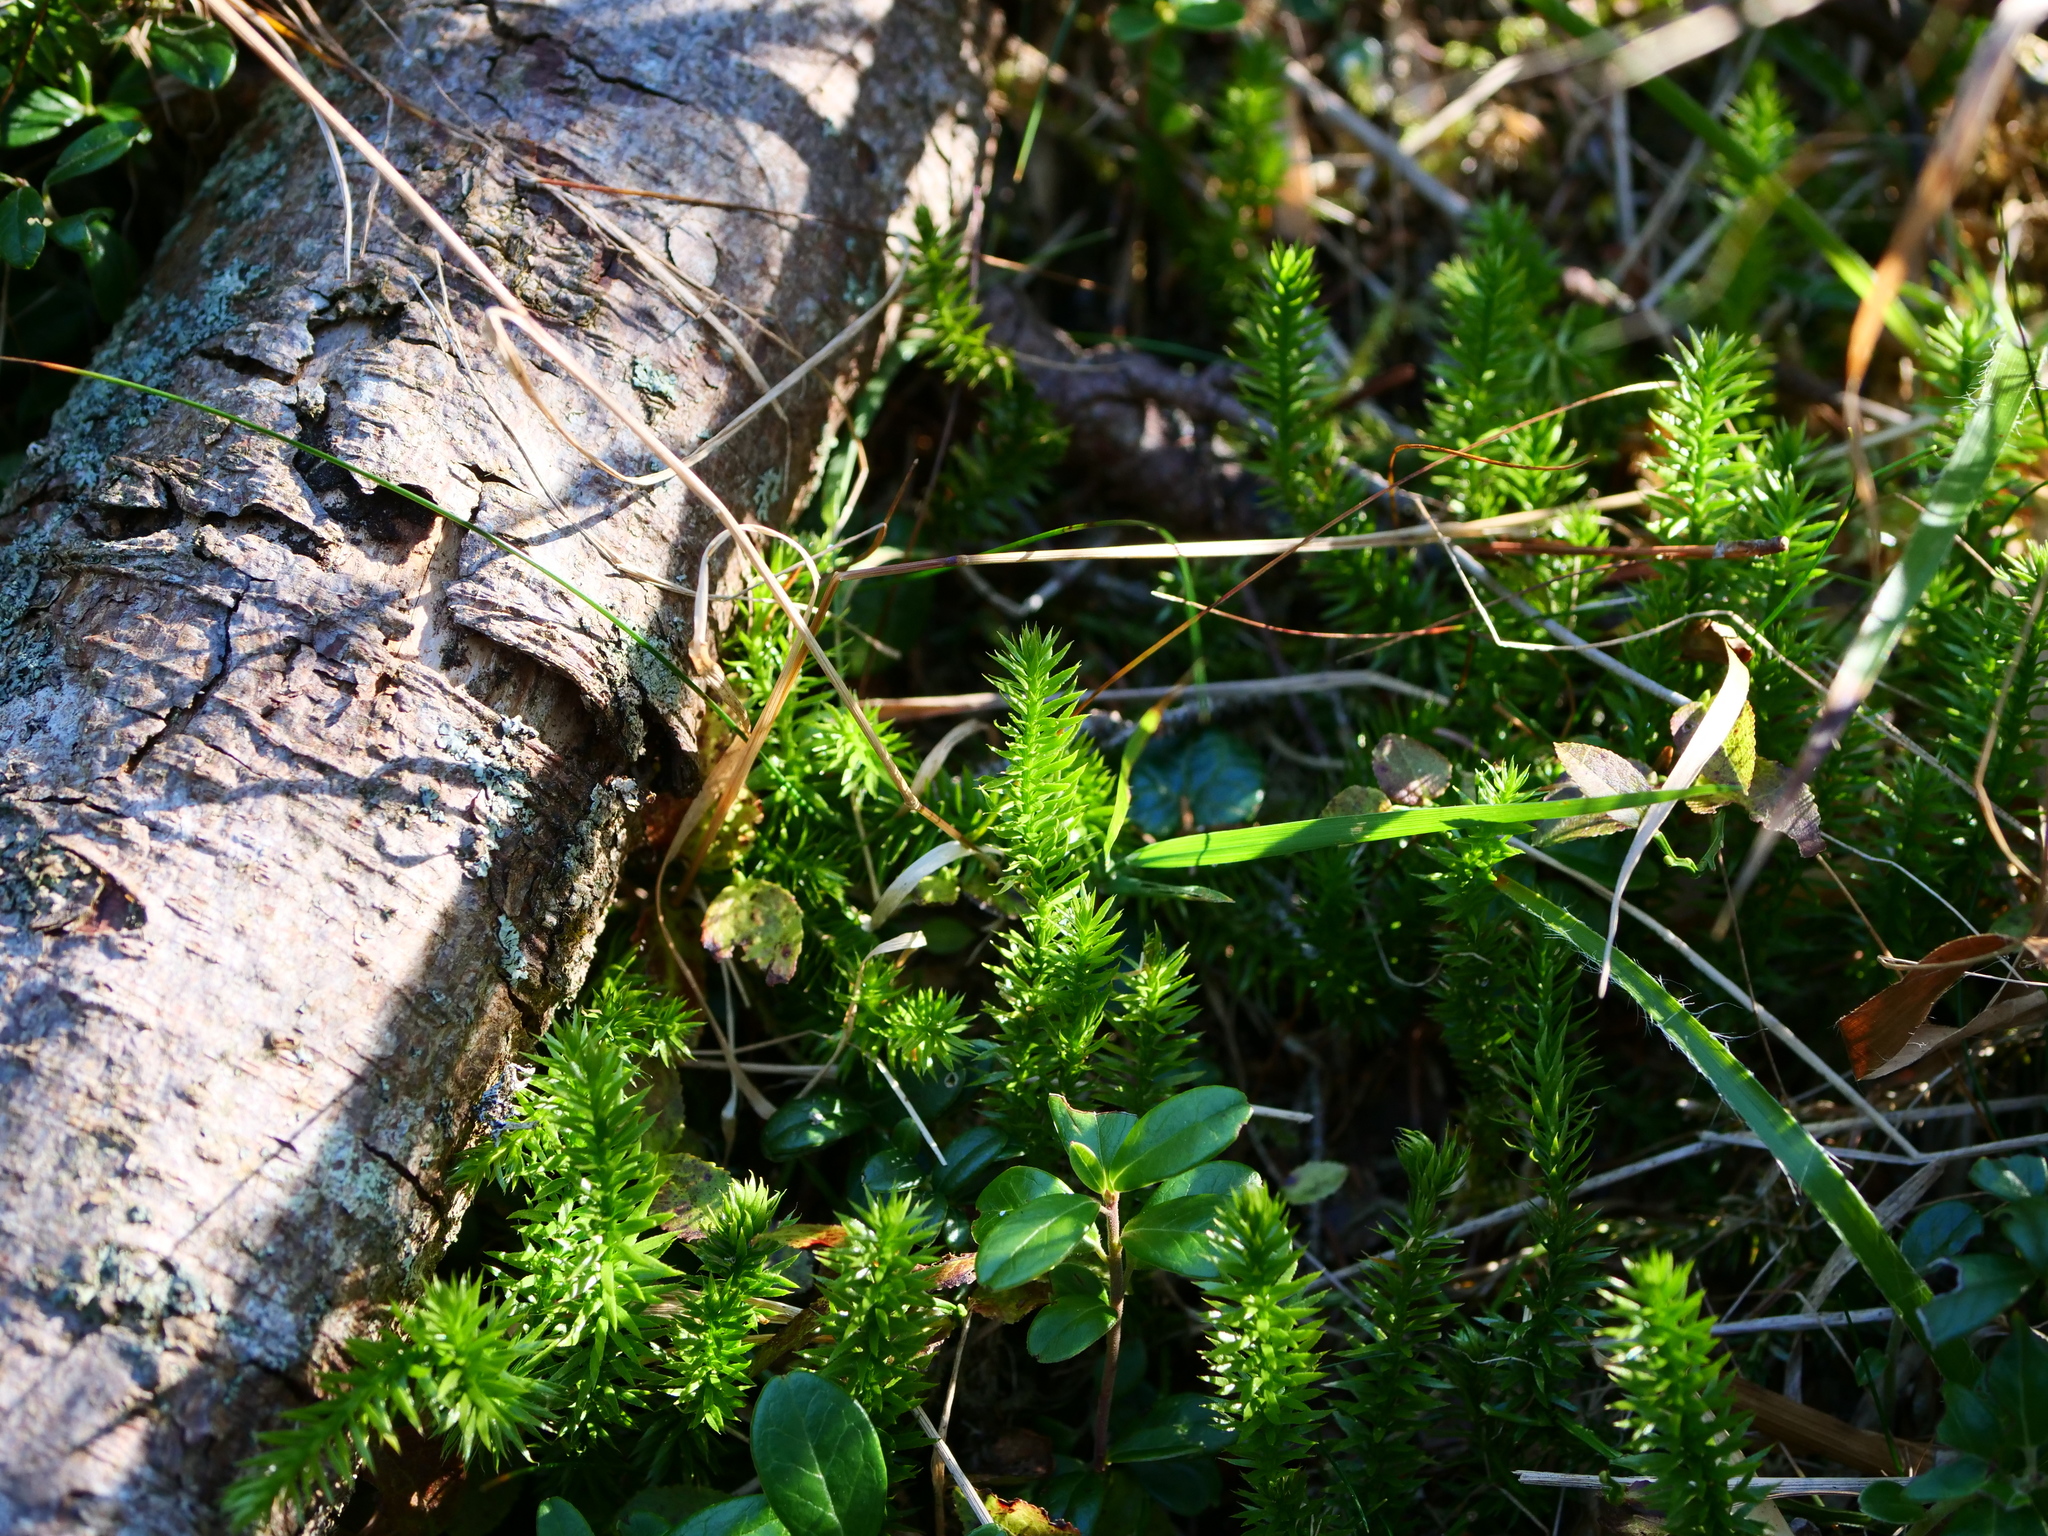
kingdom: Plantae
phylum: Tracheophyta
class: Lycopodiopsida
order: Lycopodiales
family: Lycopodiaceae
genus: Spinulum
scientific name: Spinulum annotinum
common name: Interrupted club-moss
